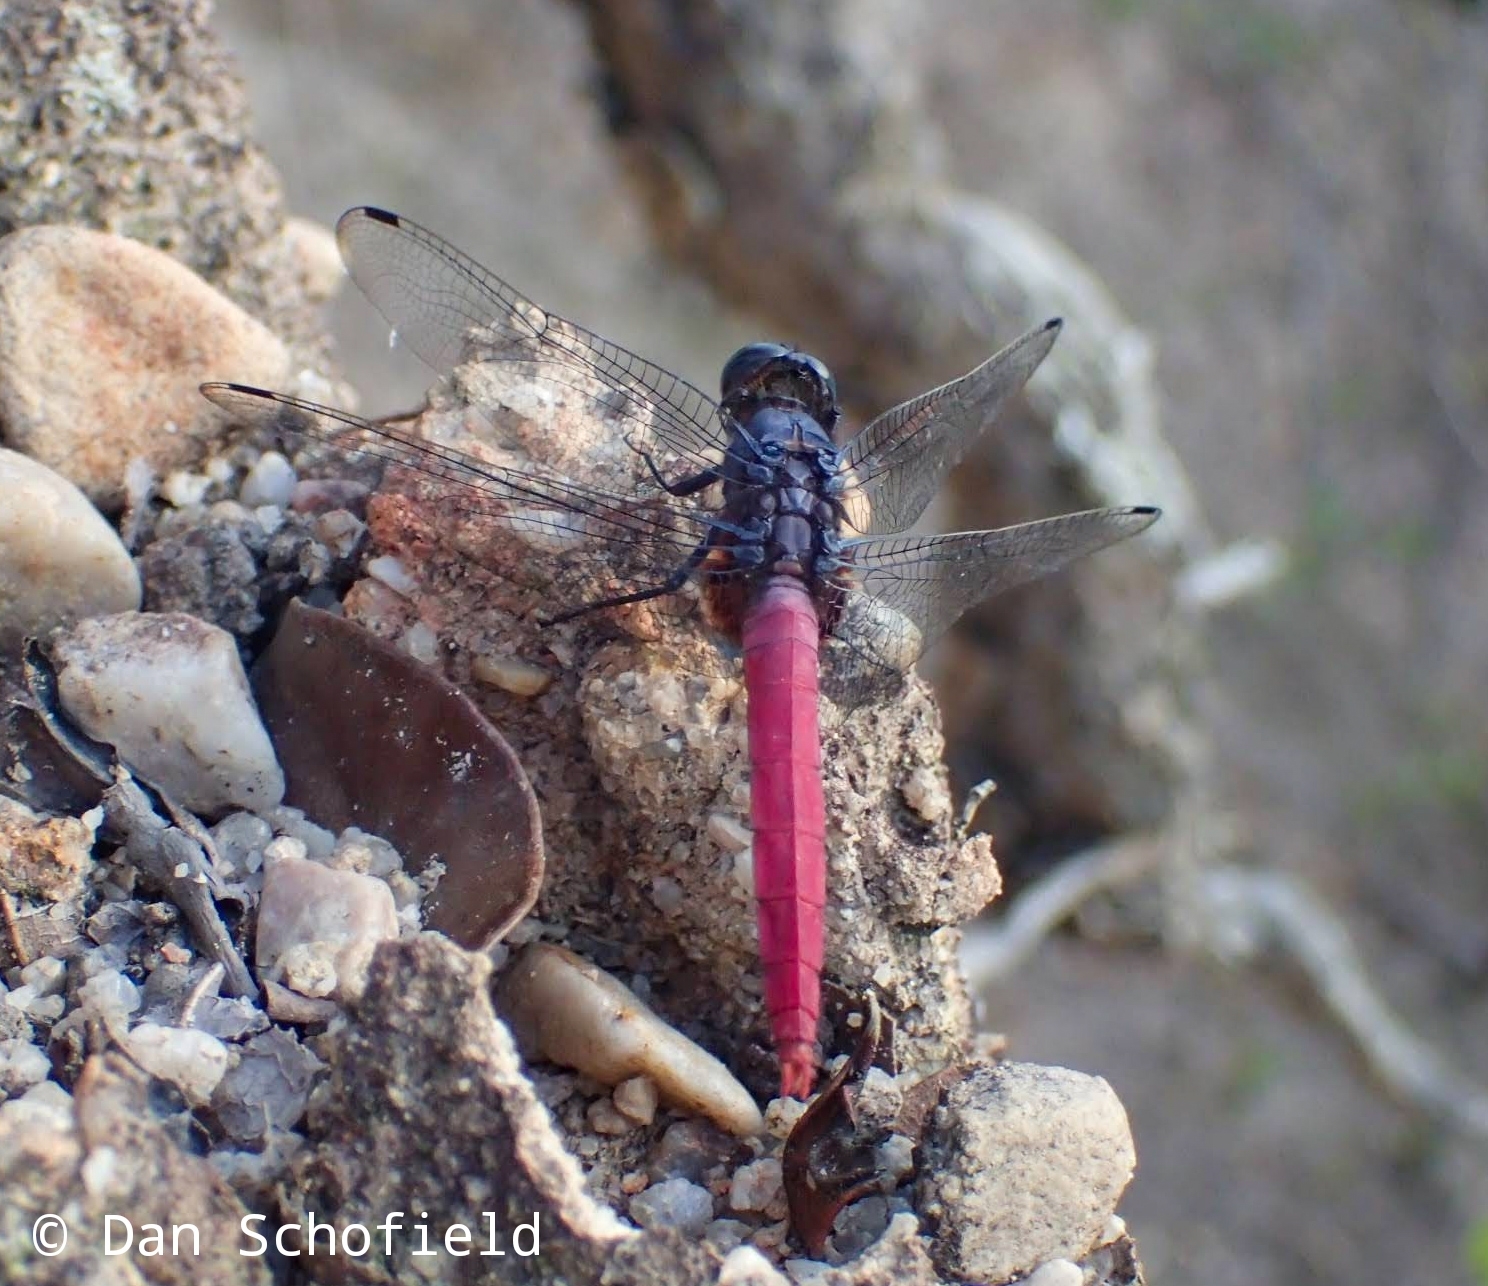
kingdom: Animalia
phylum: Arthropoda
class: Insecta
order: Odonata
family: Libellulidae
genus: Orthetrum
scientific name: Orthetrum pruinosum
